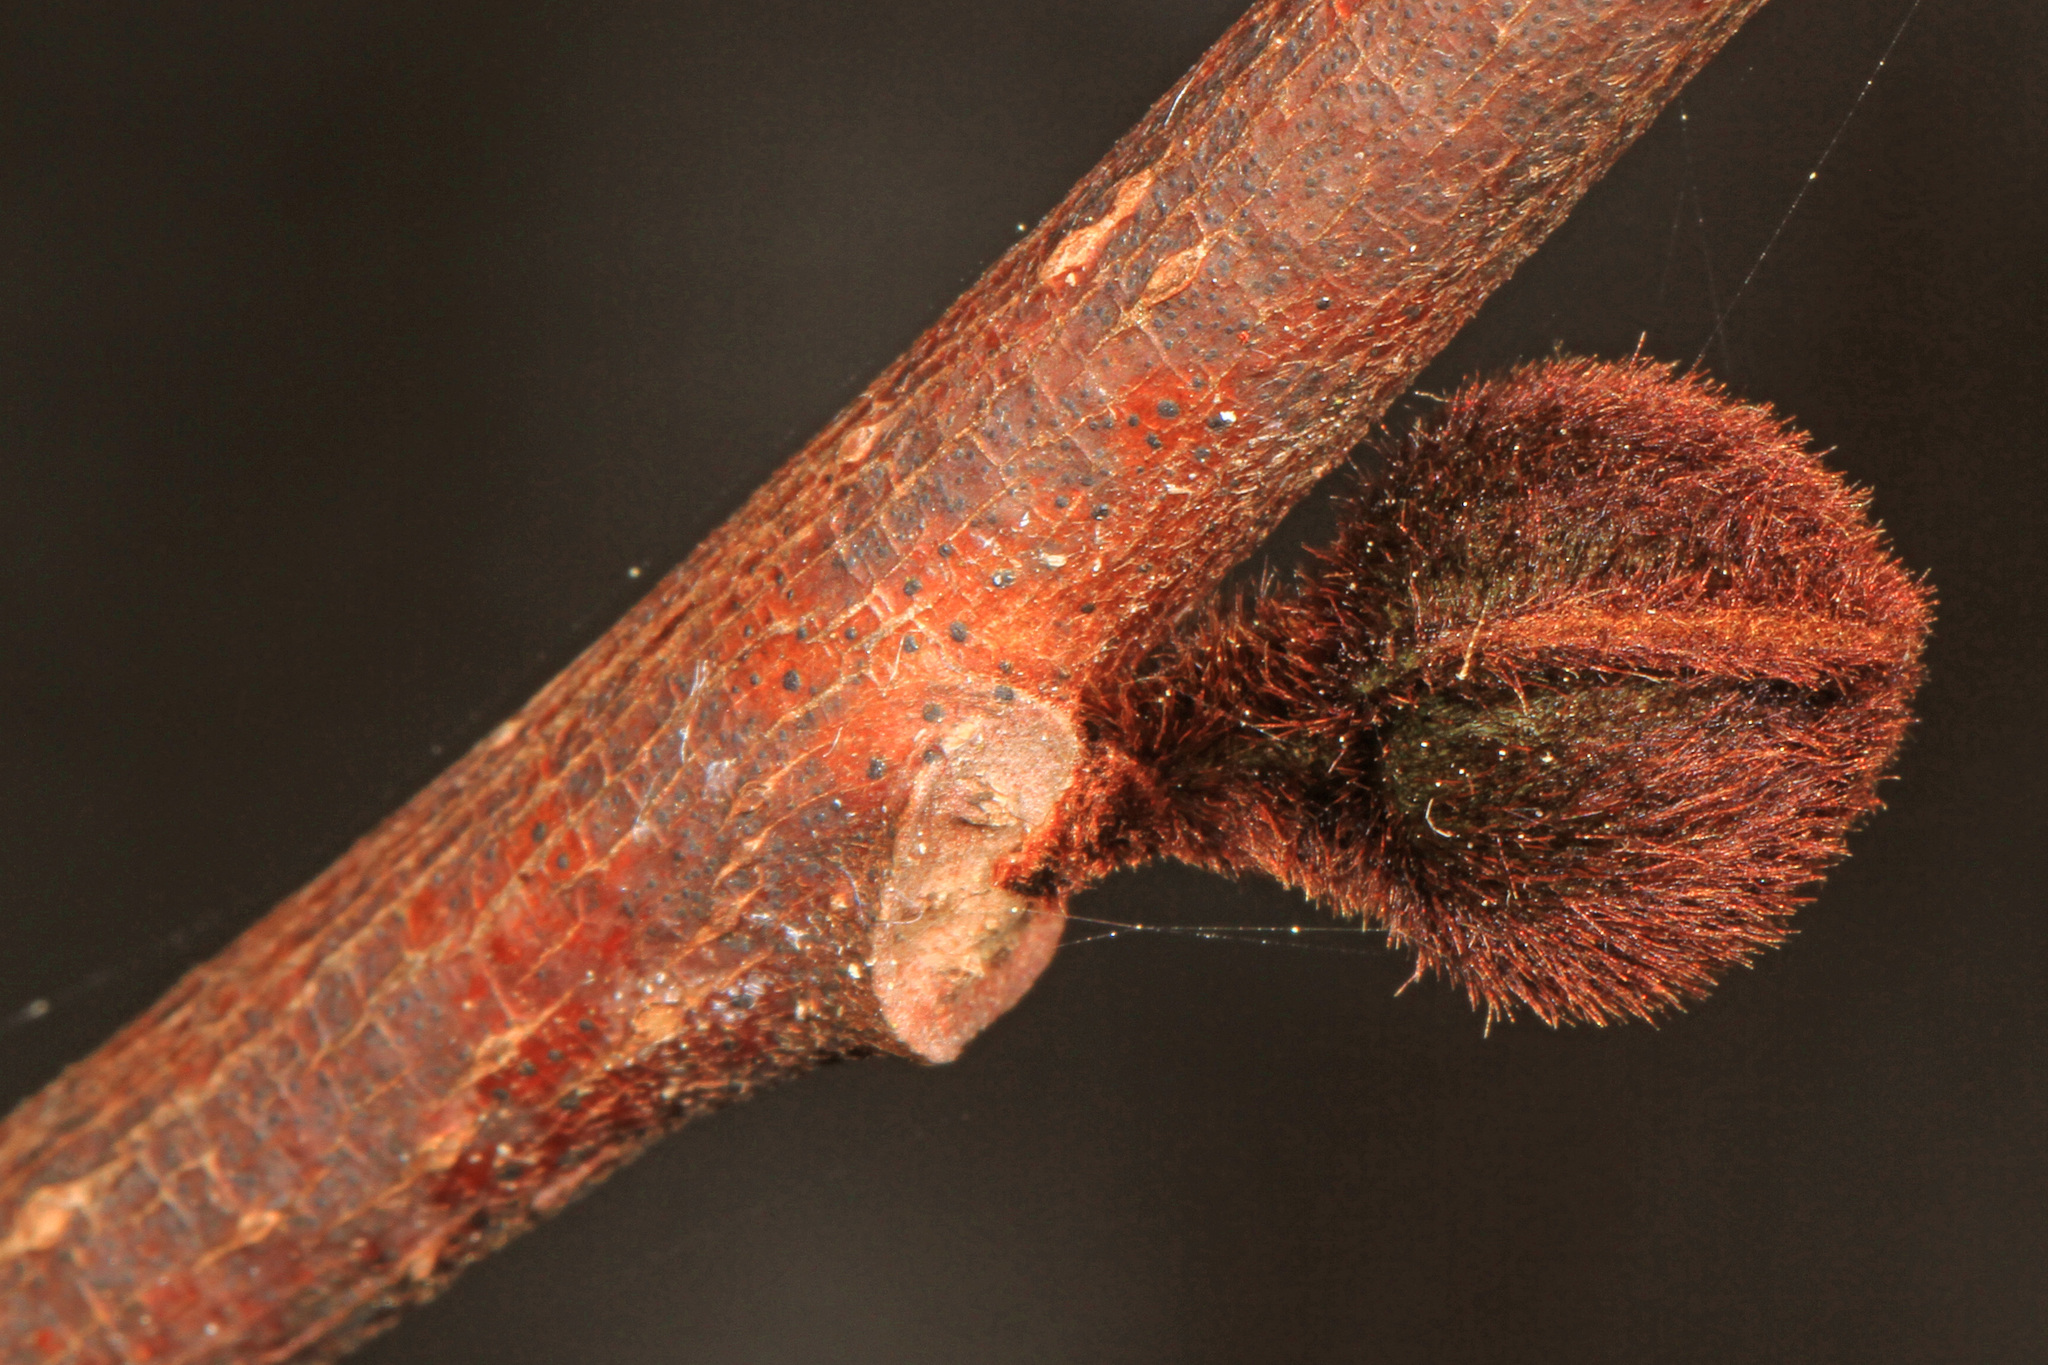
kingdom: Plantae
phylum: Tracheophyta
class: Magnoliopsida
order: Magnoliales
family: Annonaceae
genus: Asimina
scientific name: Asimina triloba
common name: Dog-banana
